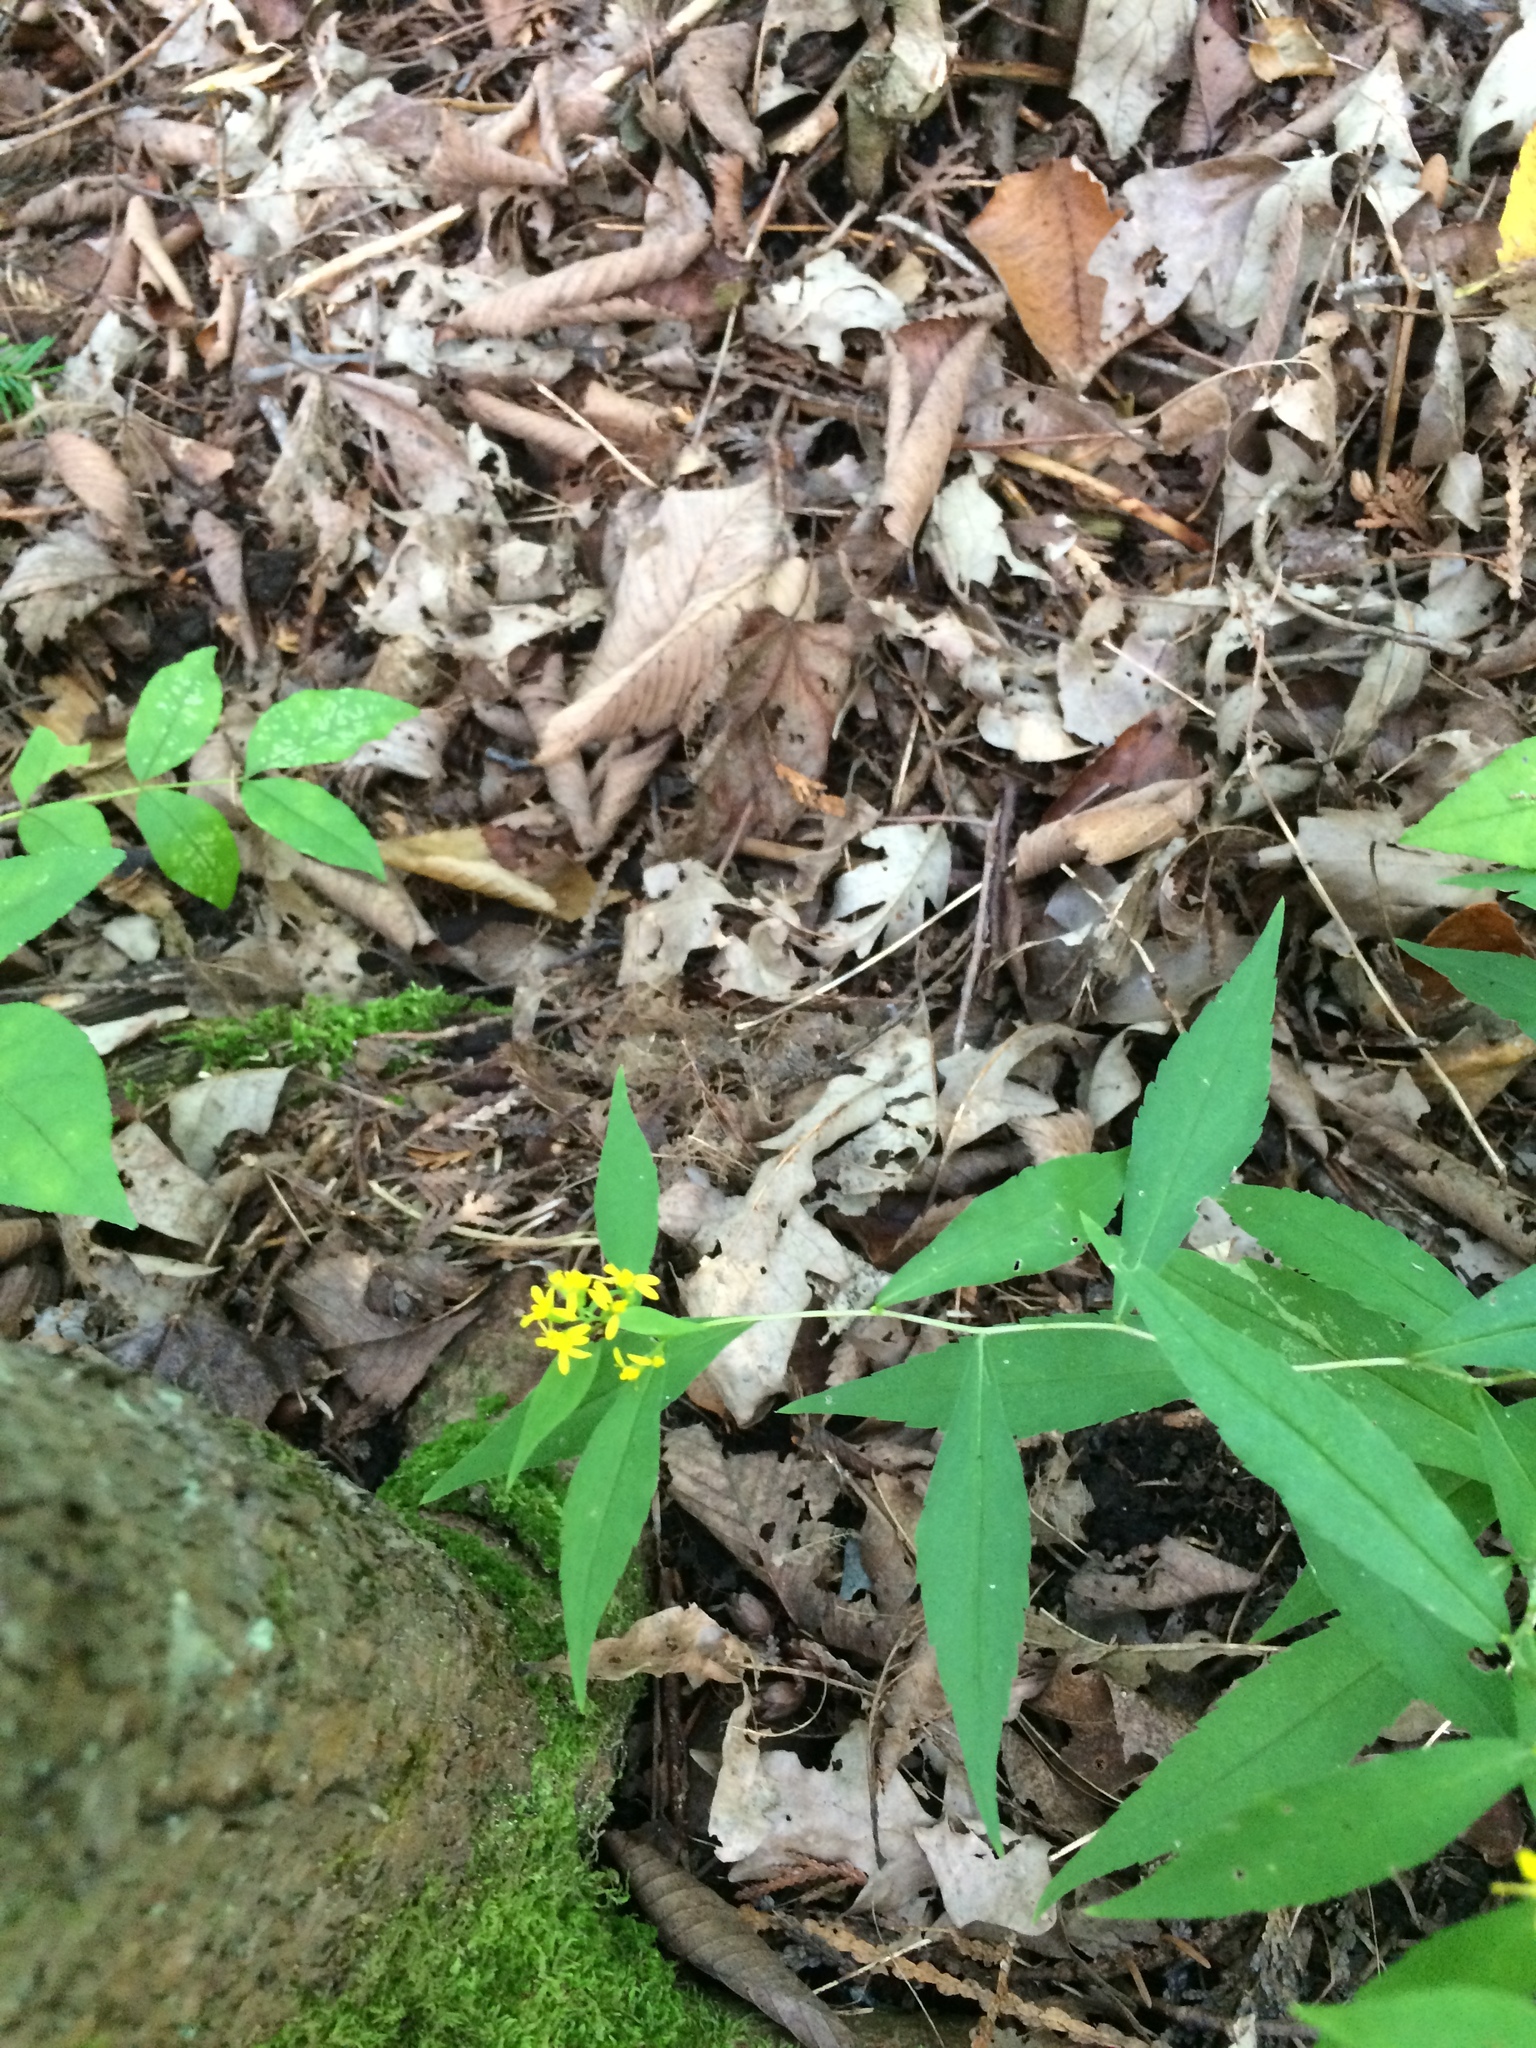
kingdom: Plantae
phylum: Tracheophyta
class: Magnoliopsida
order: Asterales
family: Asteraceae
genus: Solidago
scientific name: Solidago caesia
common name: Woodland goldenrod
